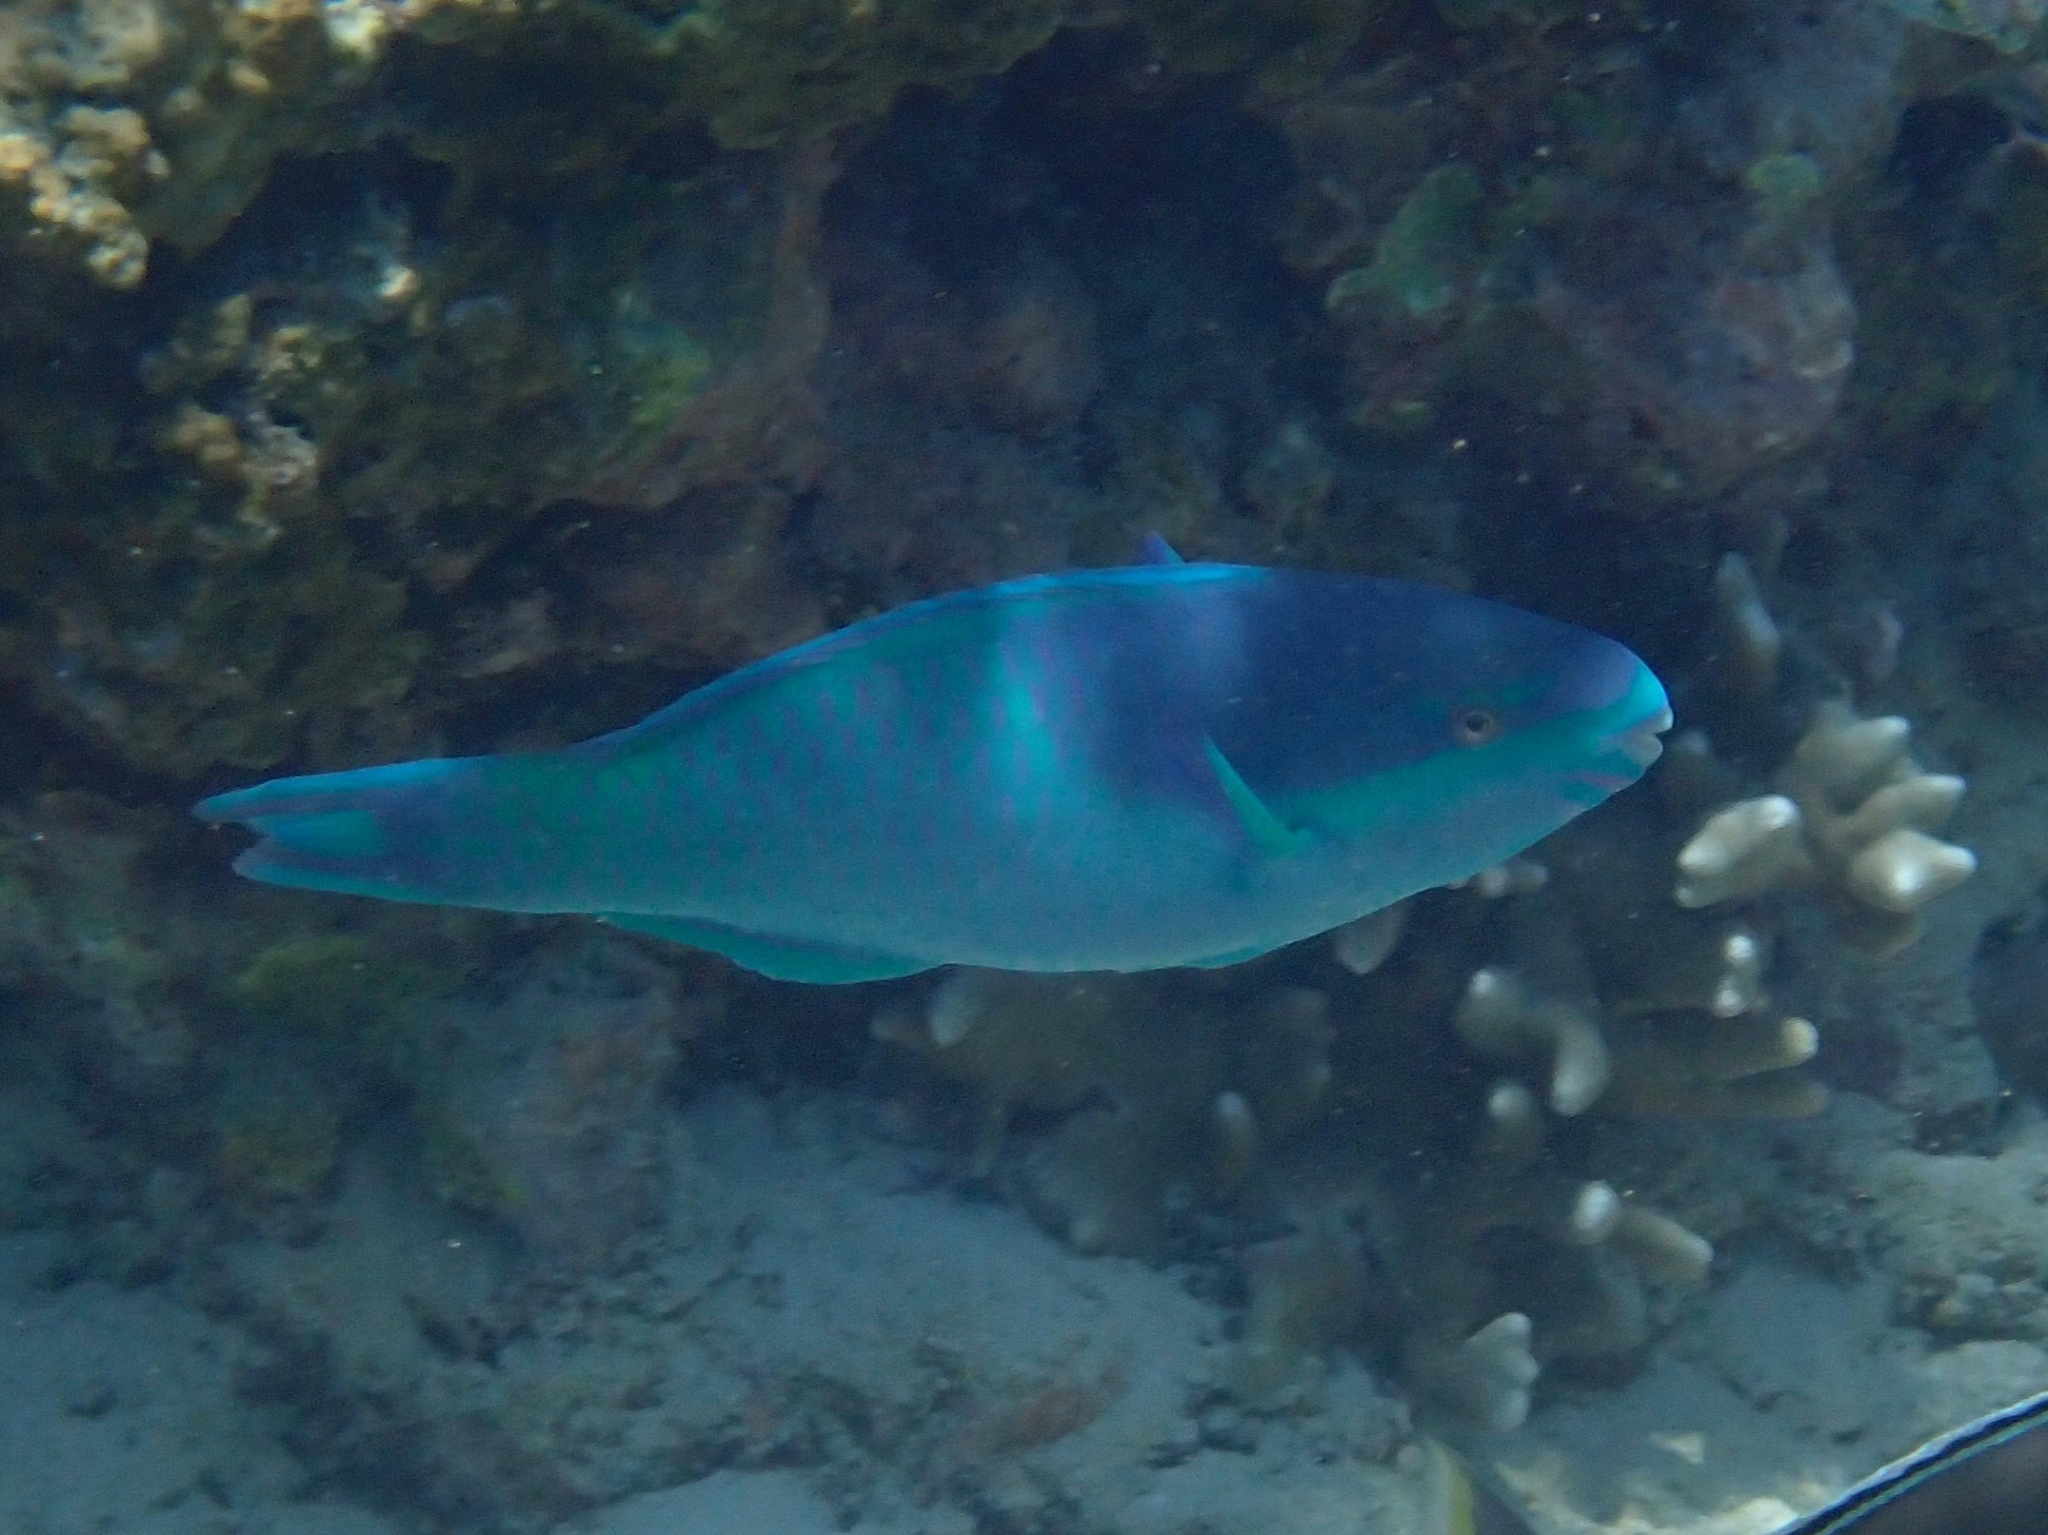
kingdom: Animalia
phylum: Chordata
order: Perciformes
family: Scaridae
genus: Scarus
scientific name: Scarus oviceps
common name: Blue parrotfish
